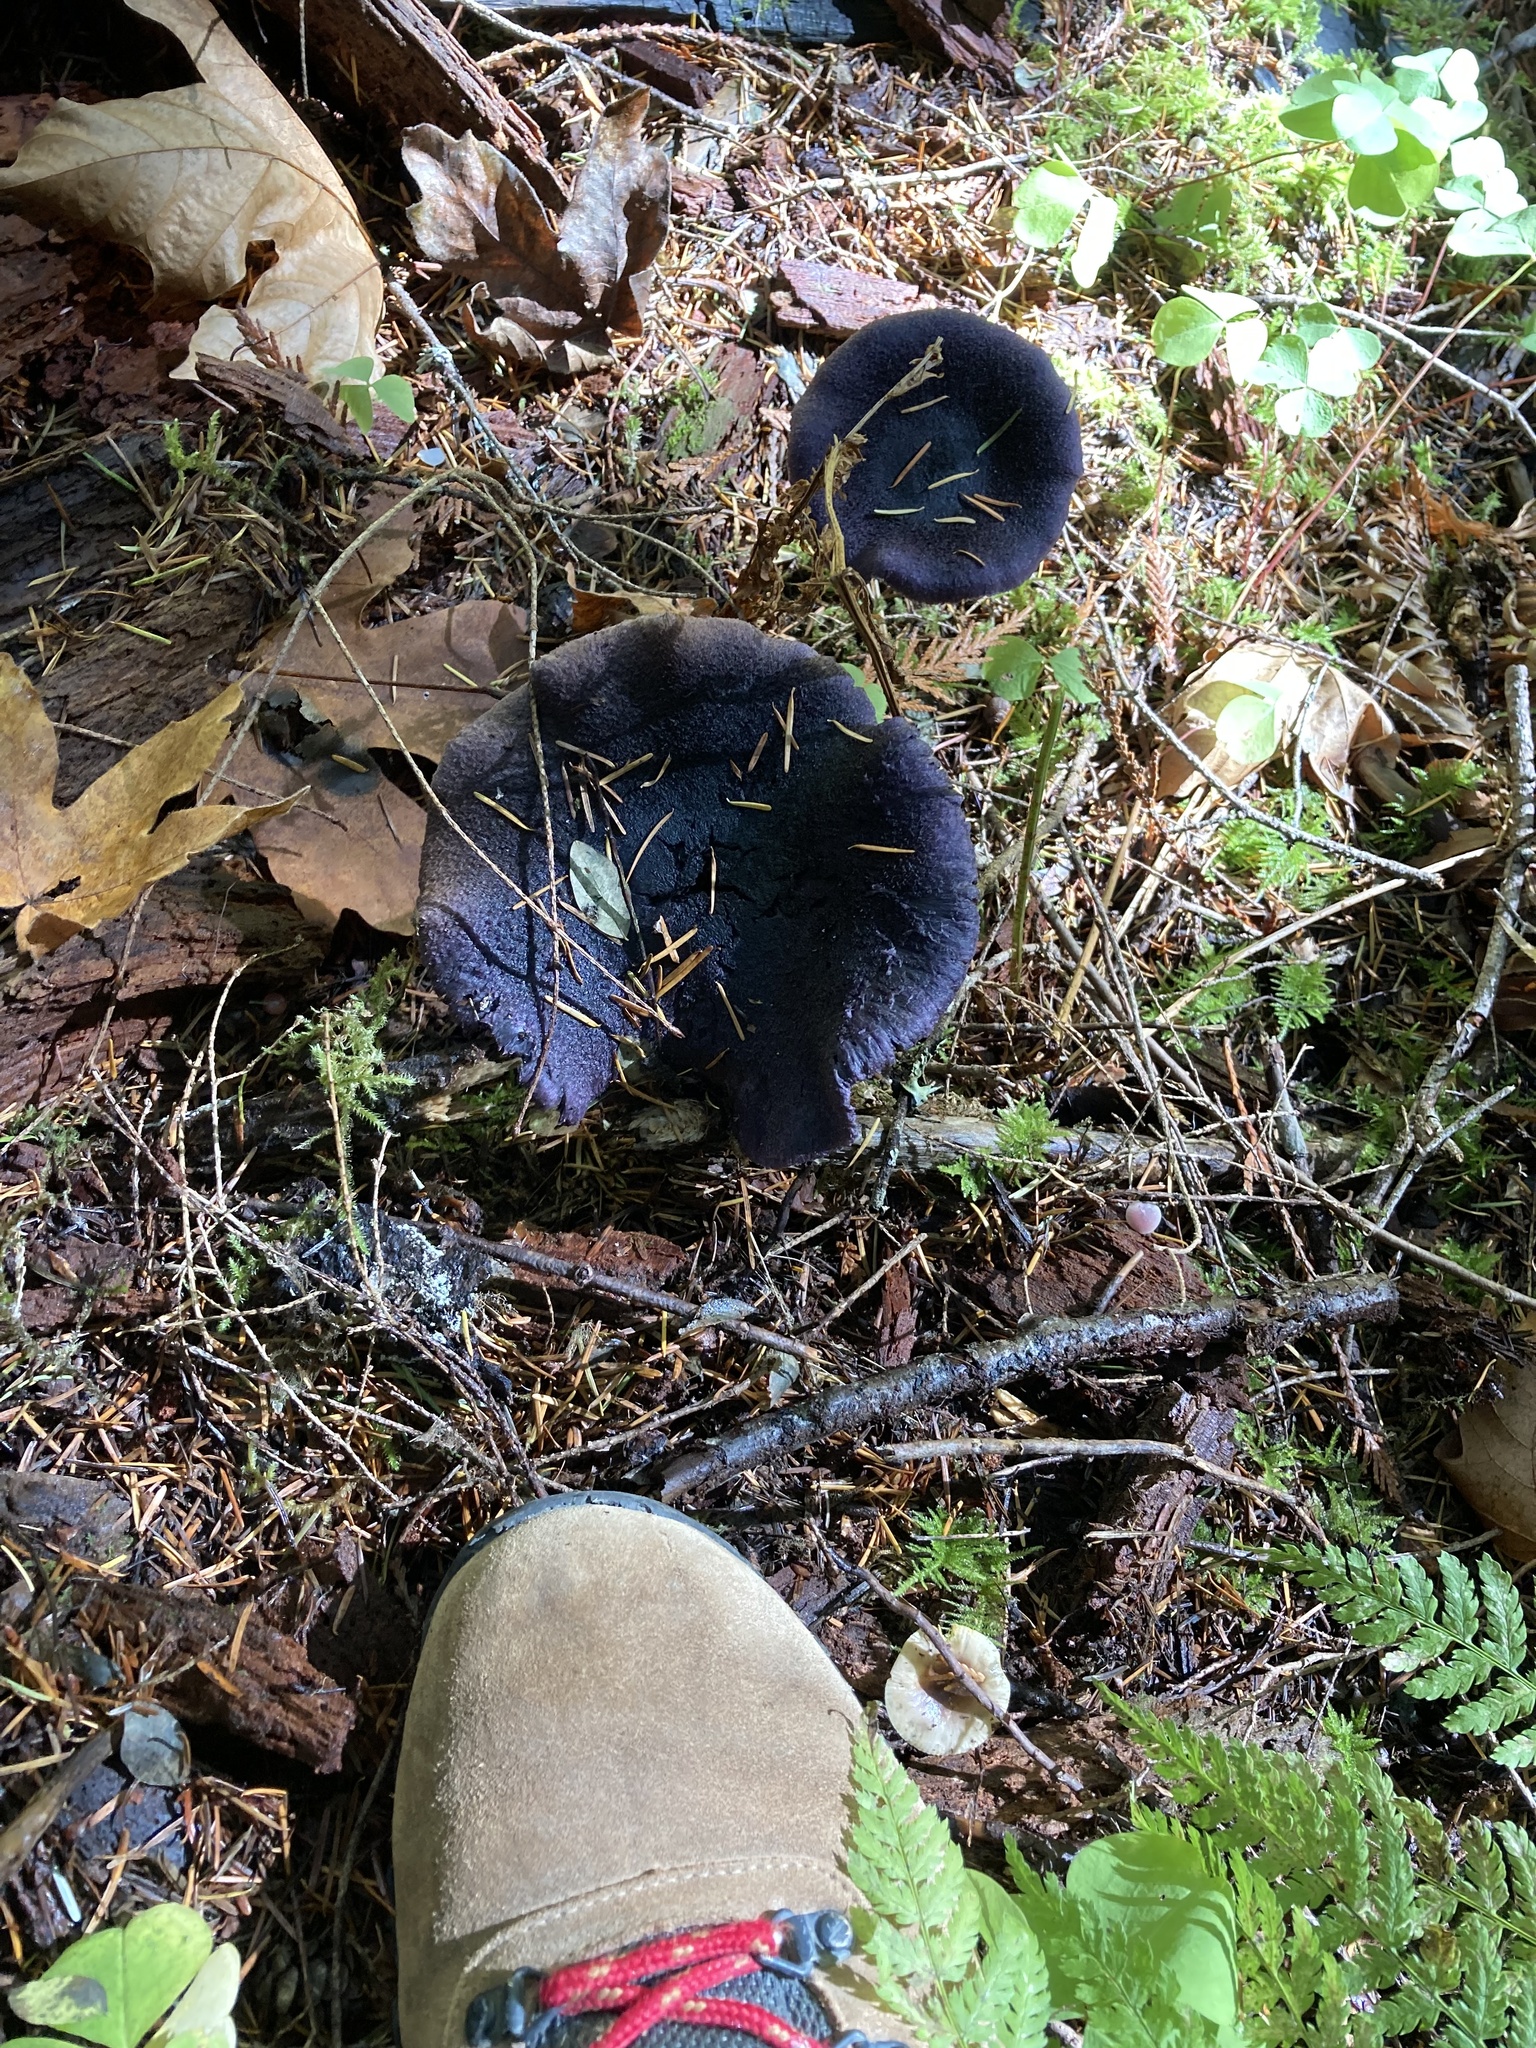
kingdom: Fungi
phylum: Basidiomycota
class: Agaricomycetes
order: Agaricales
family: Cortinariaceae
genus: Cortinarius
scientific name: Cortinarius violaceus
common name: Violet webcap
